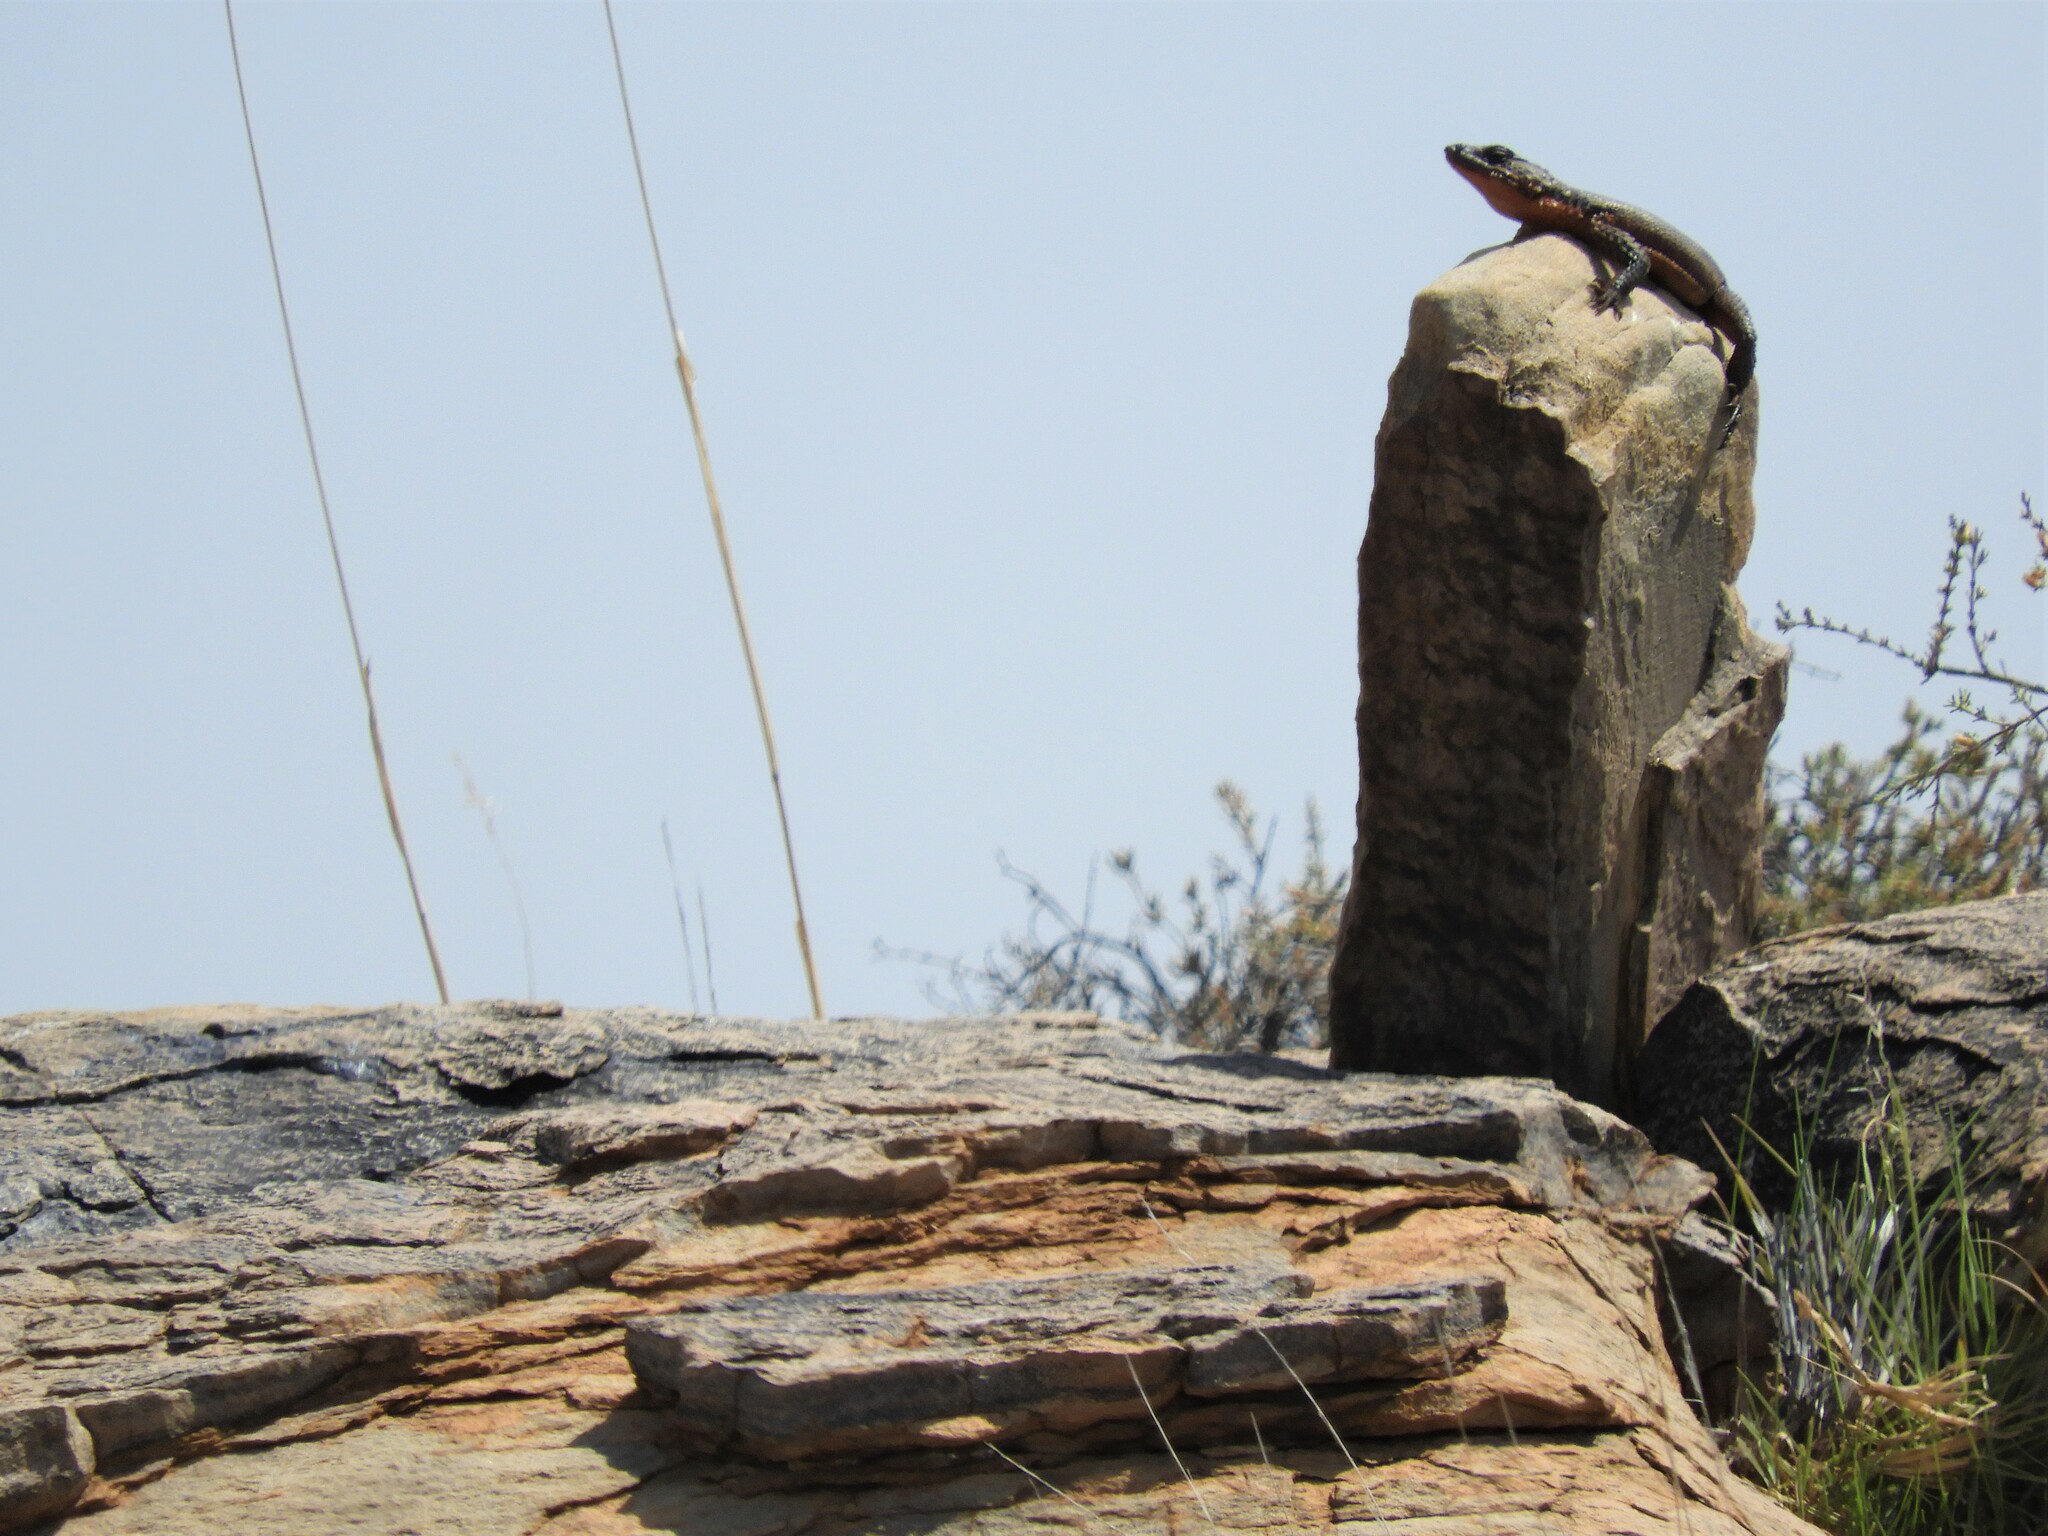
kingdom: Animalia
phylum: Chordata
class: Squamata
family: Cordylidae
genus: Karusasaurus
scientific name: Karusasaurus polyzonus
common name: Karoo girdled lizard
